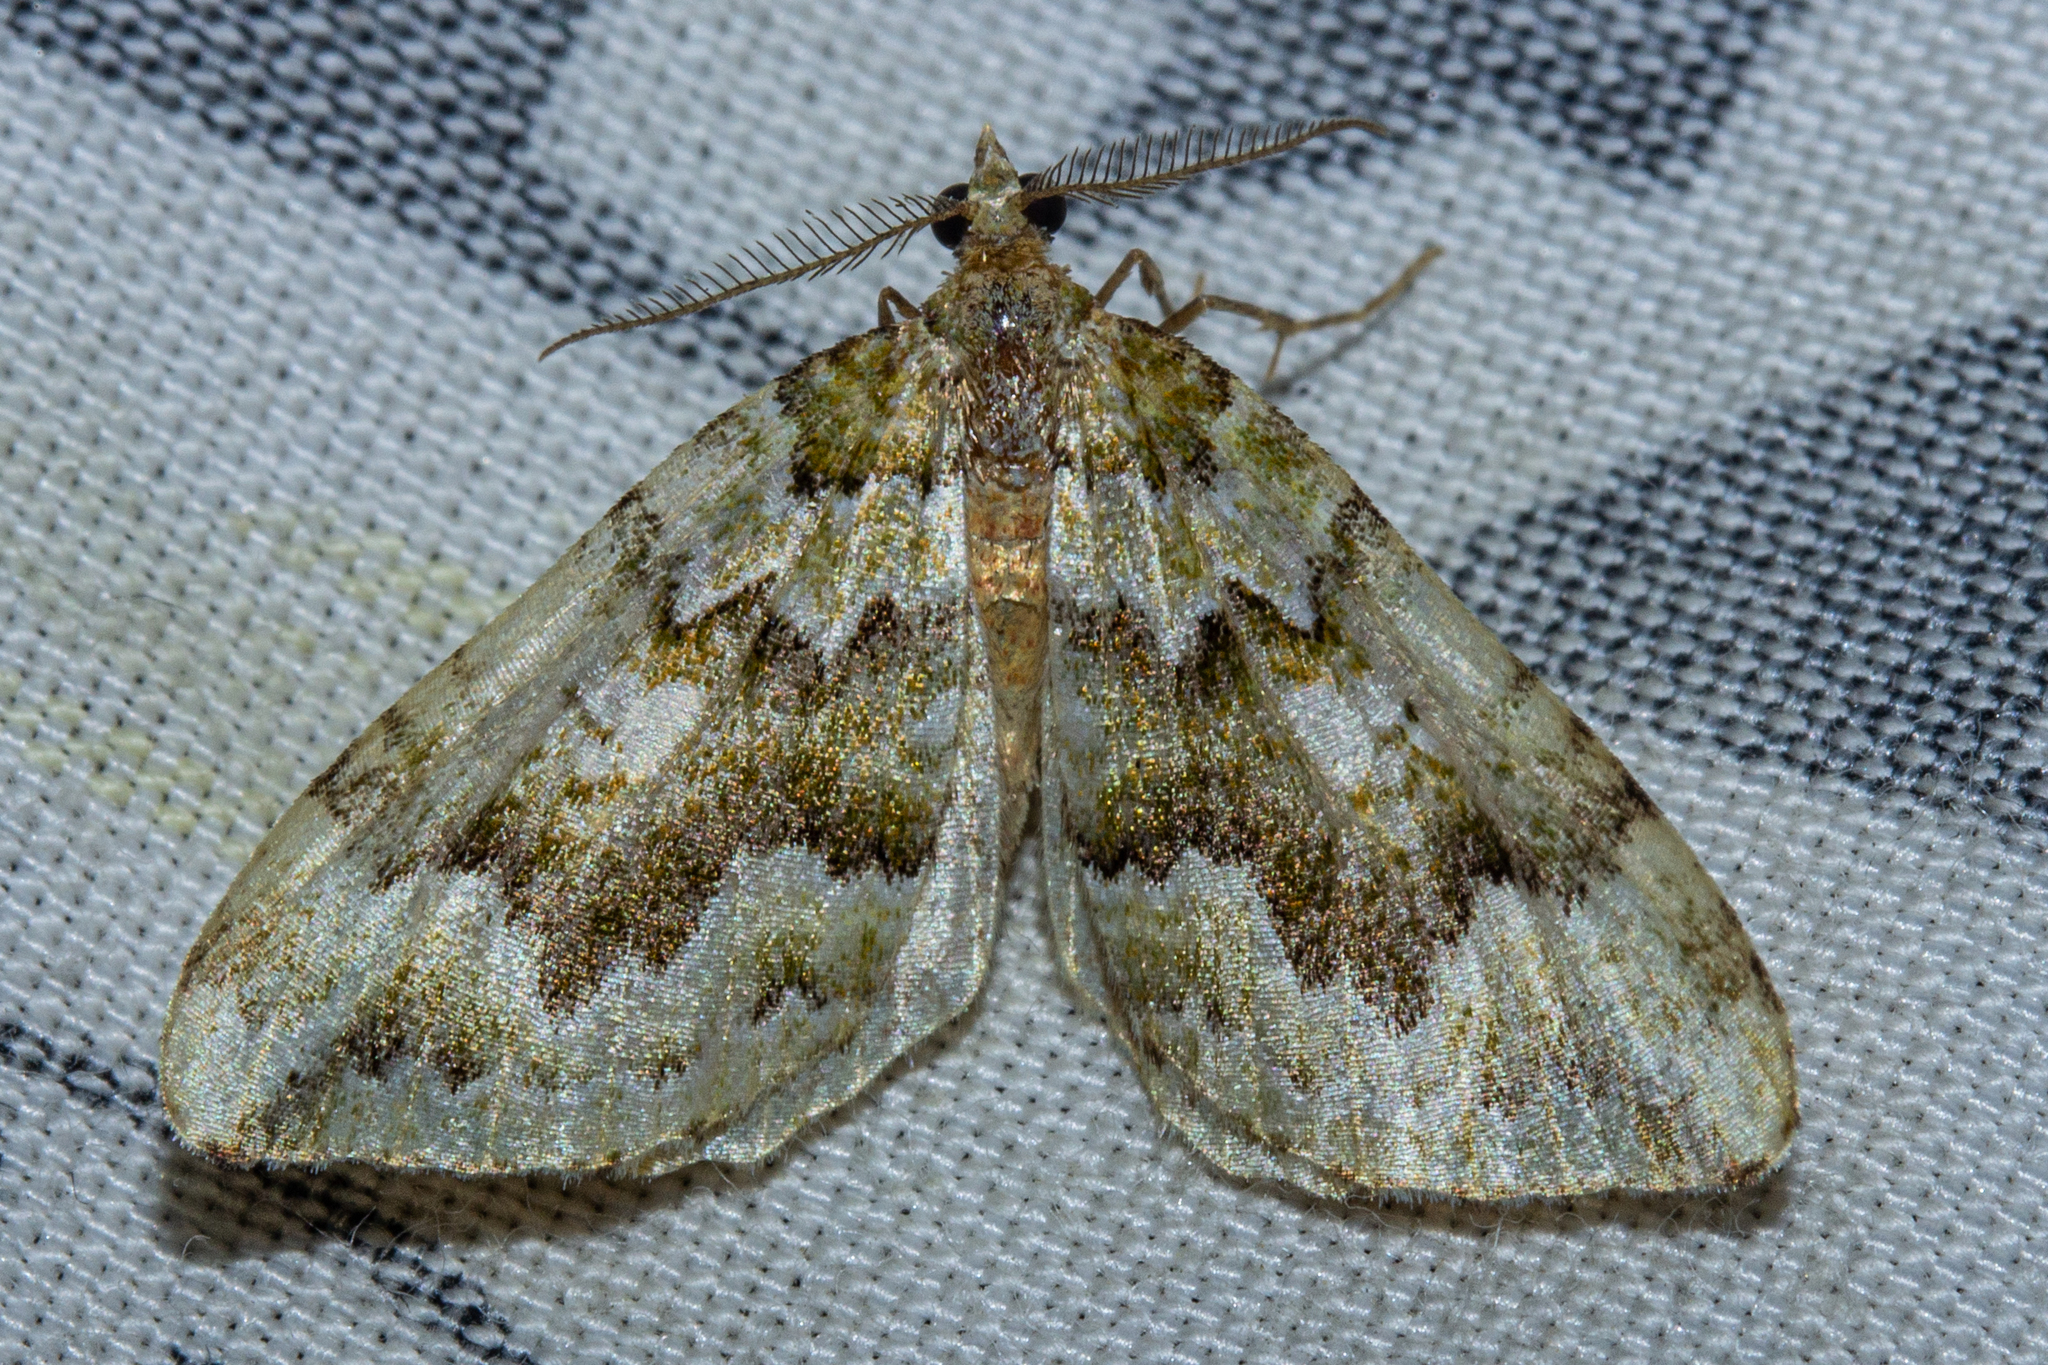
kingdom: Animalia
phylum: Arthropoda
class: Insecta
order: Lepidoptera
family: Geometridae
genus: Asaphodes
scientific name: Asaphodes beata
